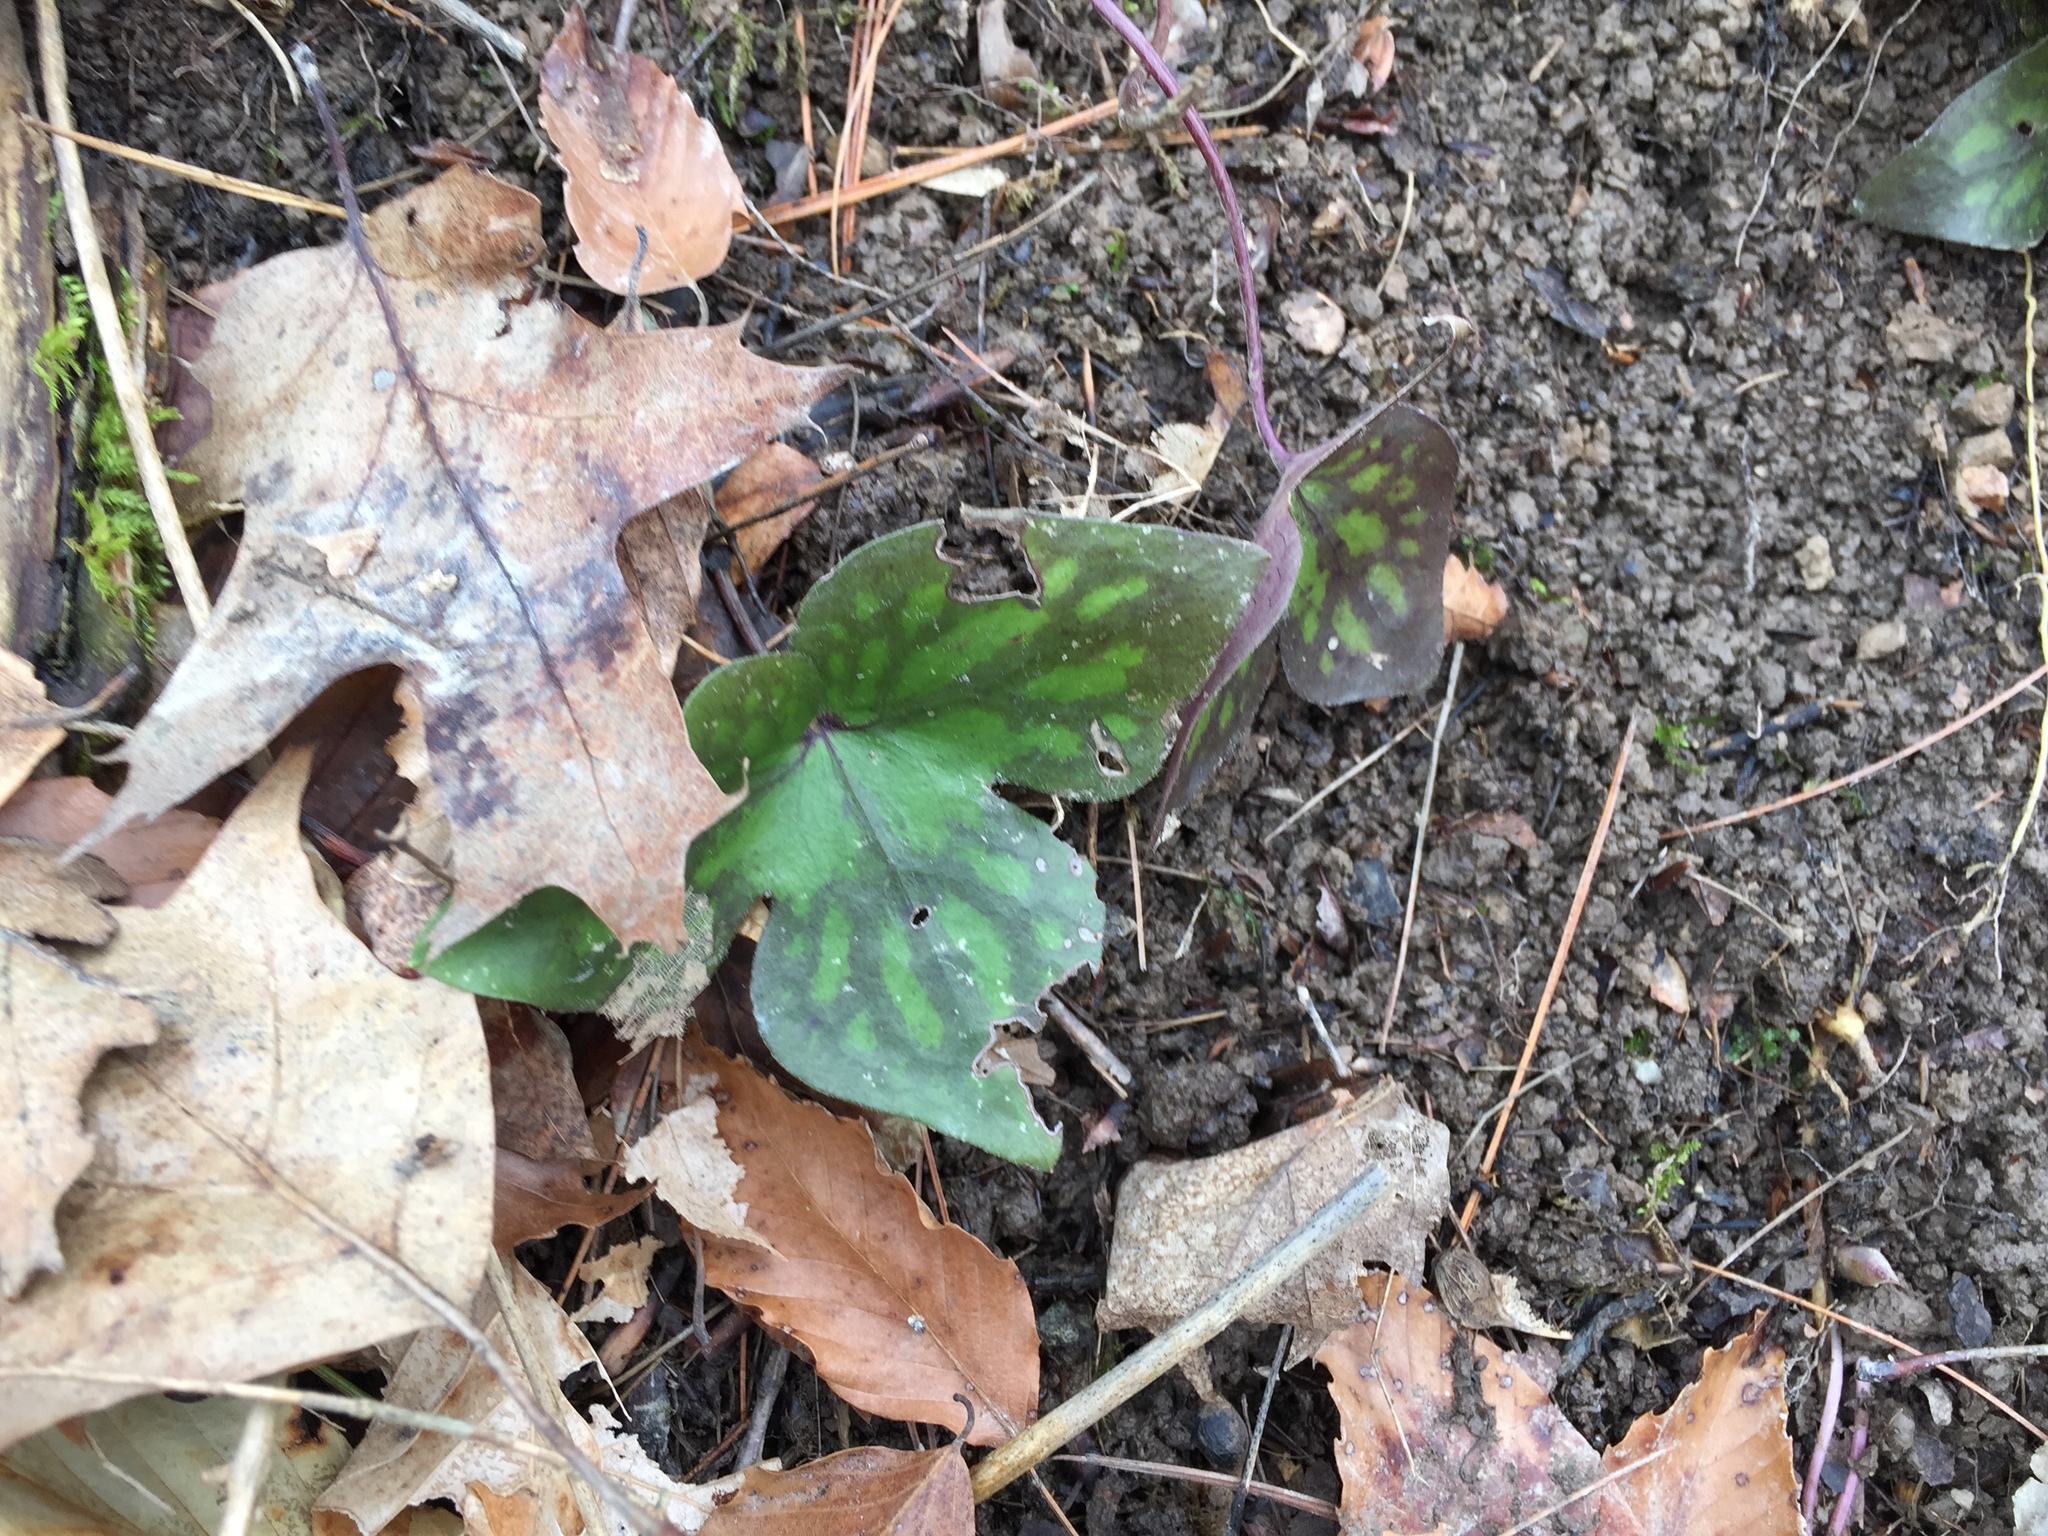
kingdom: Plantae
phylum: Tracheophyta
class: Magnoliopsida
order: Ranunculales
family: Ranunculaceae
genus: Hepatica
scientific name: Hepatica acutiloba
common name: Sharp-lobed hepatica
